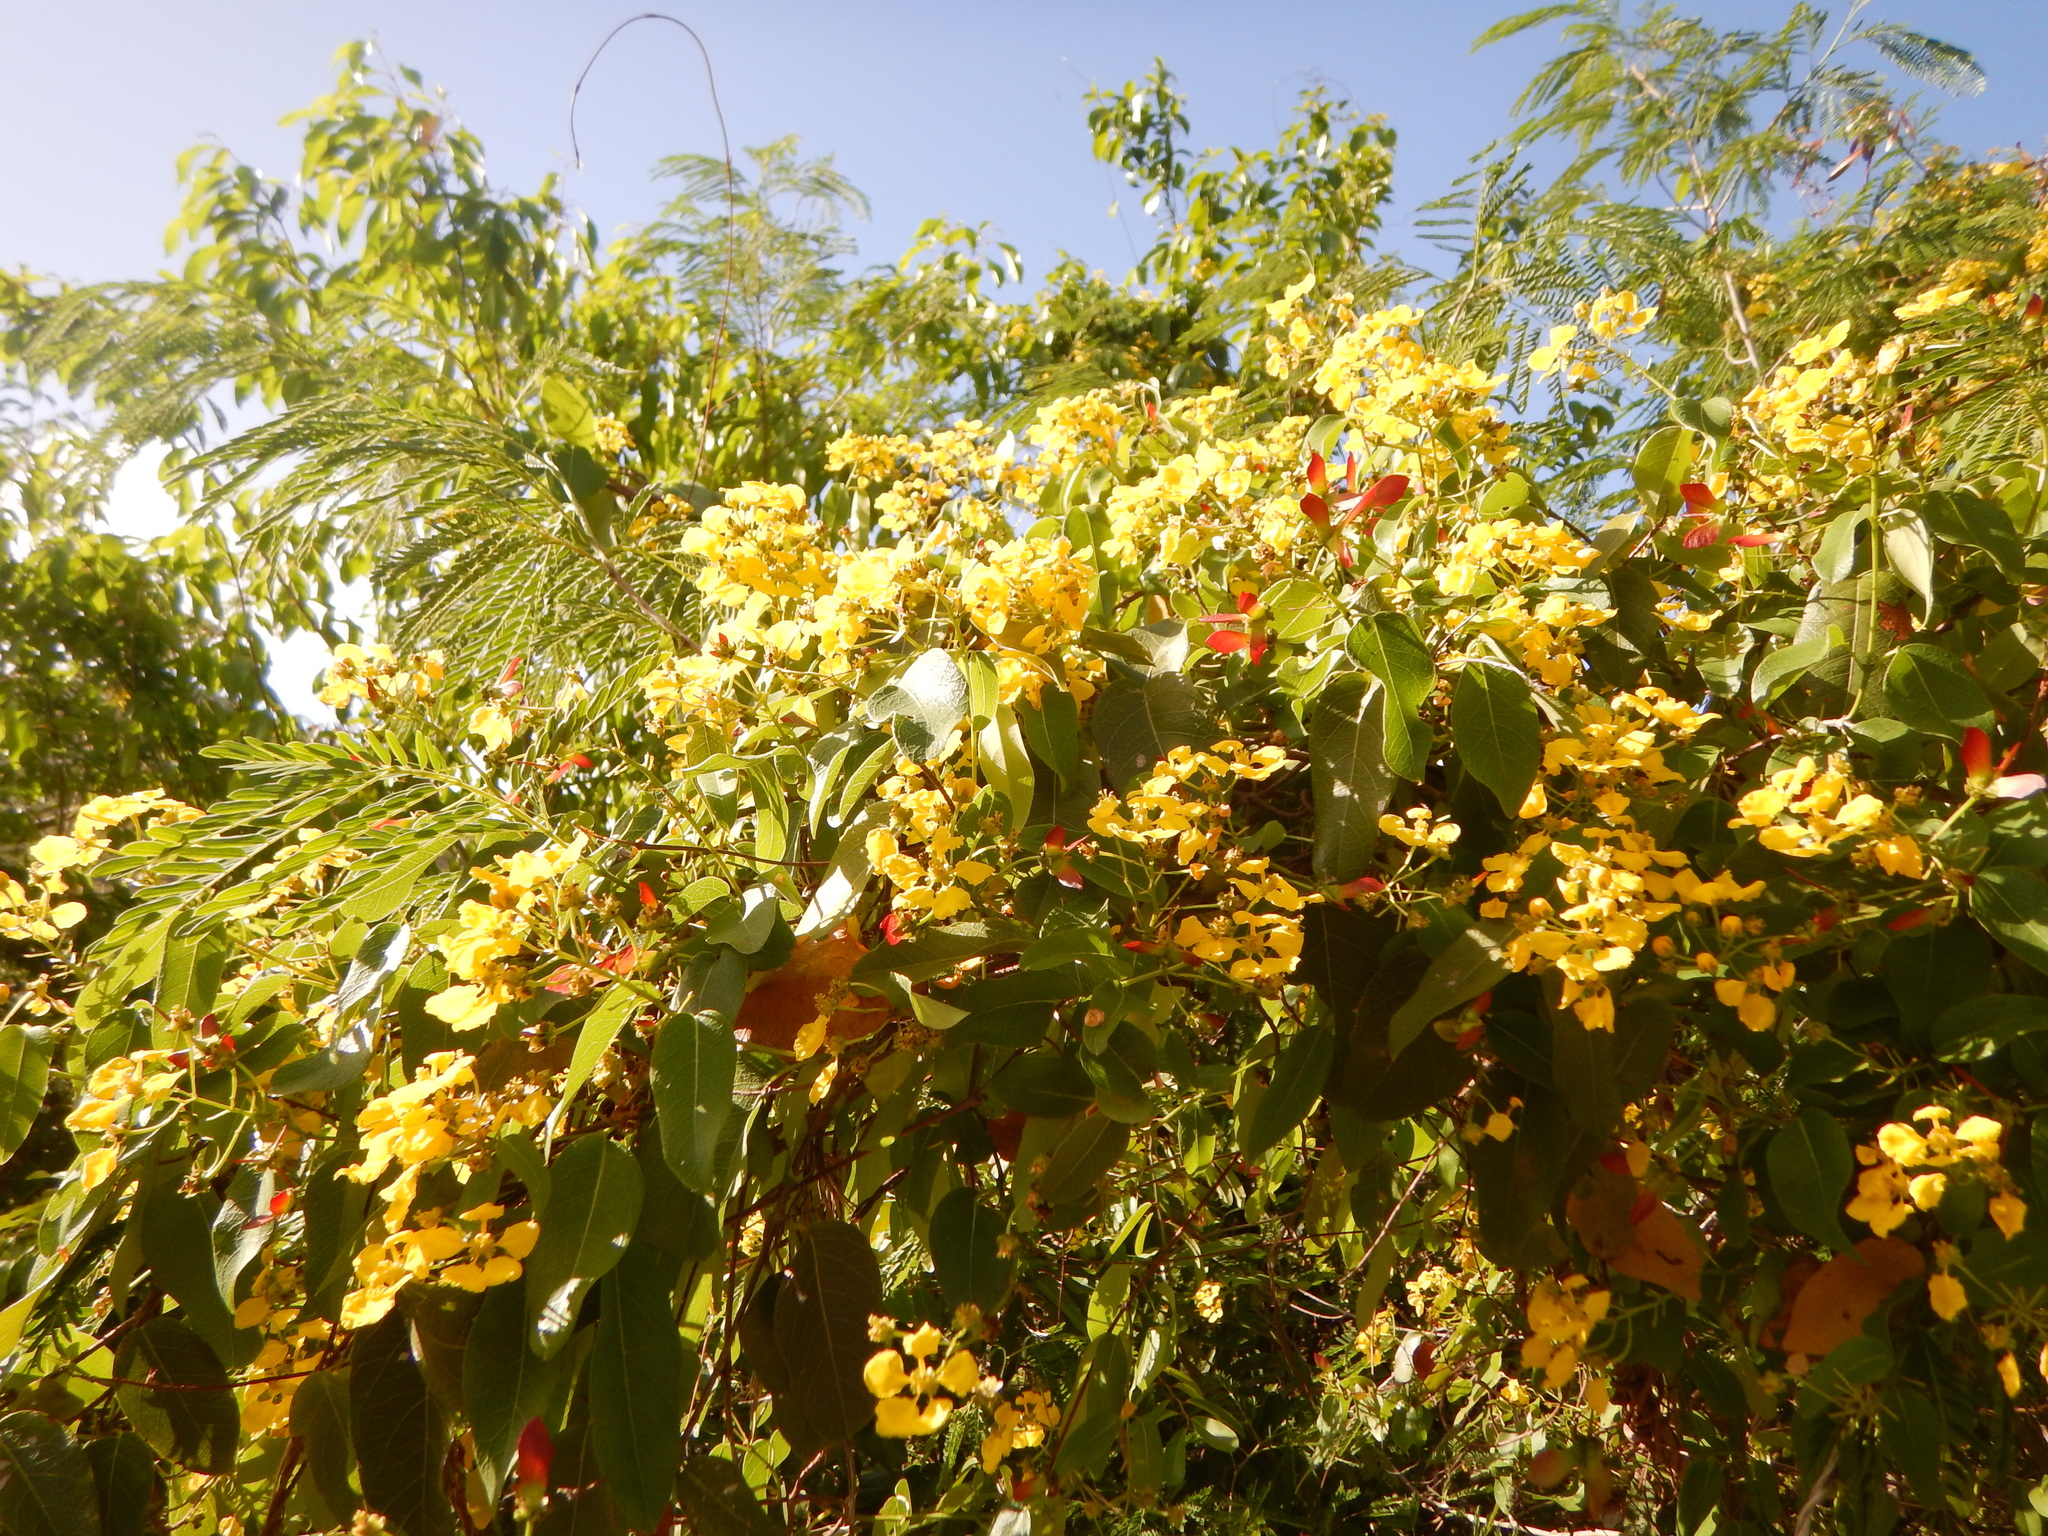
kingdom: Plantae
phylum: Tracheophyta
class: Magnoliopsida
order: Malpighiales
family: Malpighiaceae
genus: Stigmaphyllon
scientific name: Stigmaphyllon emarginatum
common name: Monarch amazonvine
